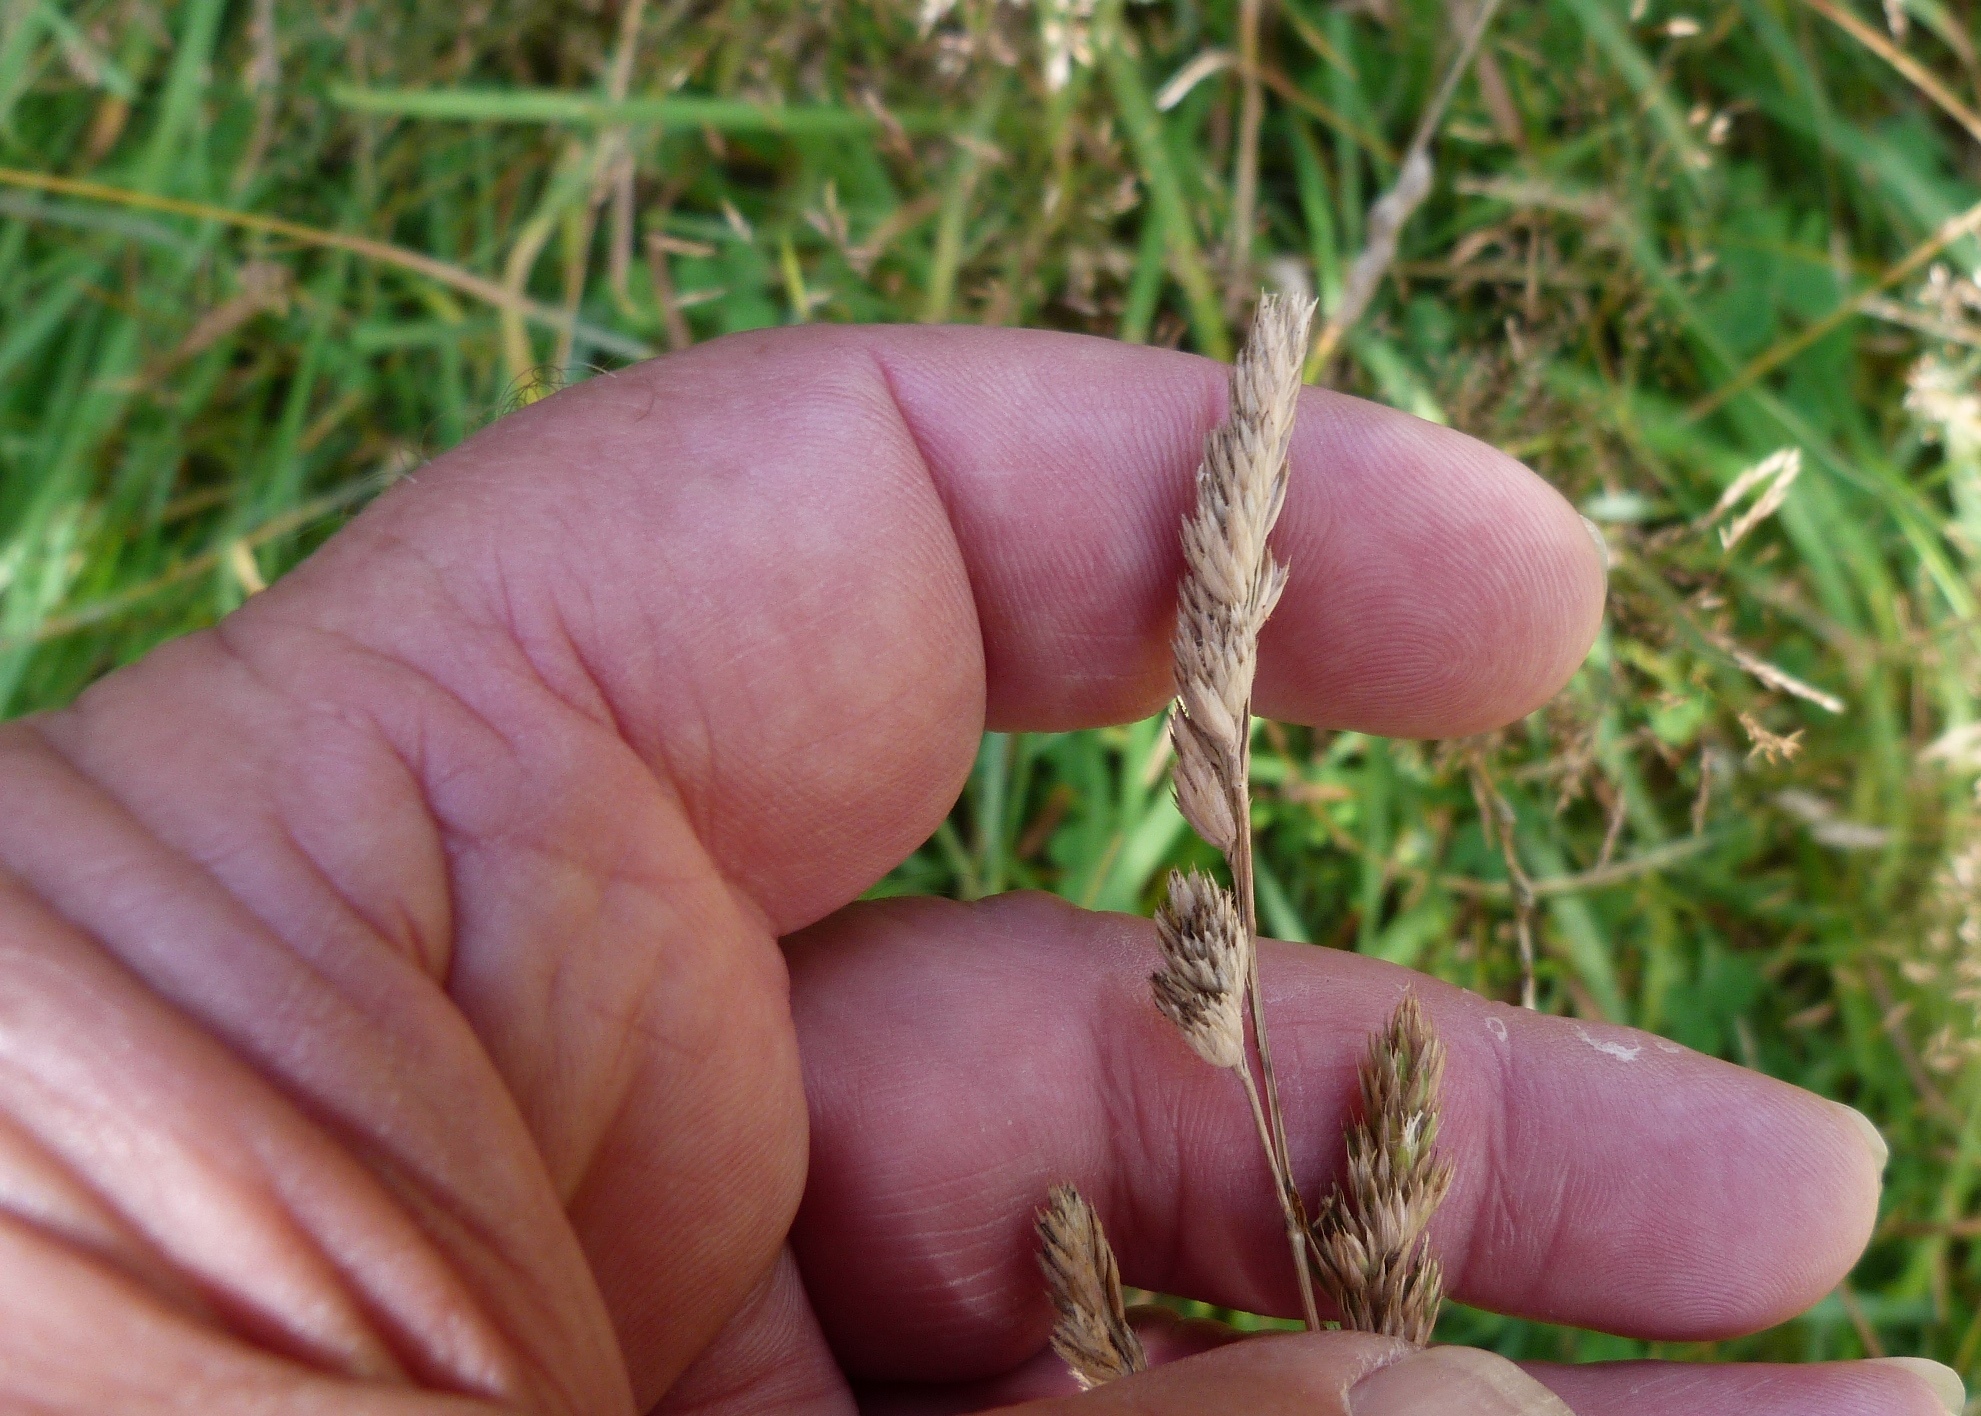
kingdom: Plantae
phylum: Tracheophyta
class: Liliopsida
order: Poales
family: Poaceae
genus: Dactylis
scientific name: Dactylis glomerata
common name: Orchardgrass
